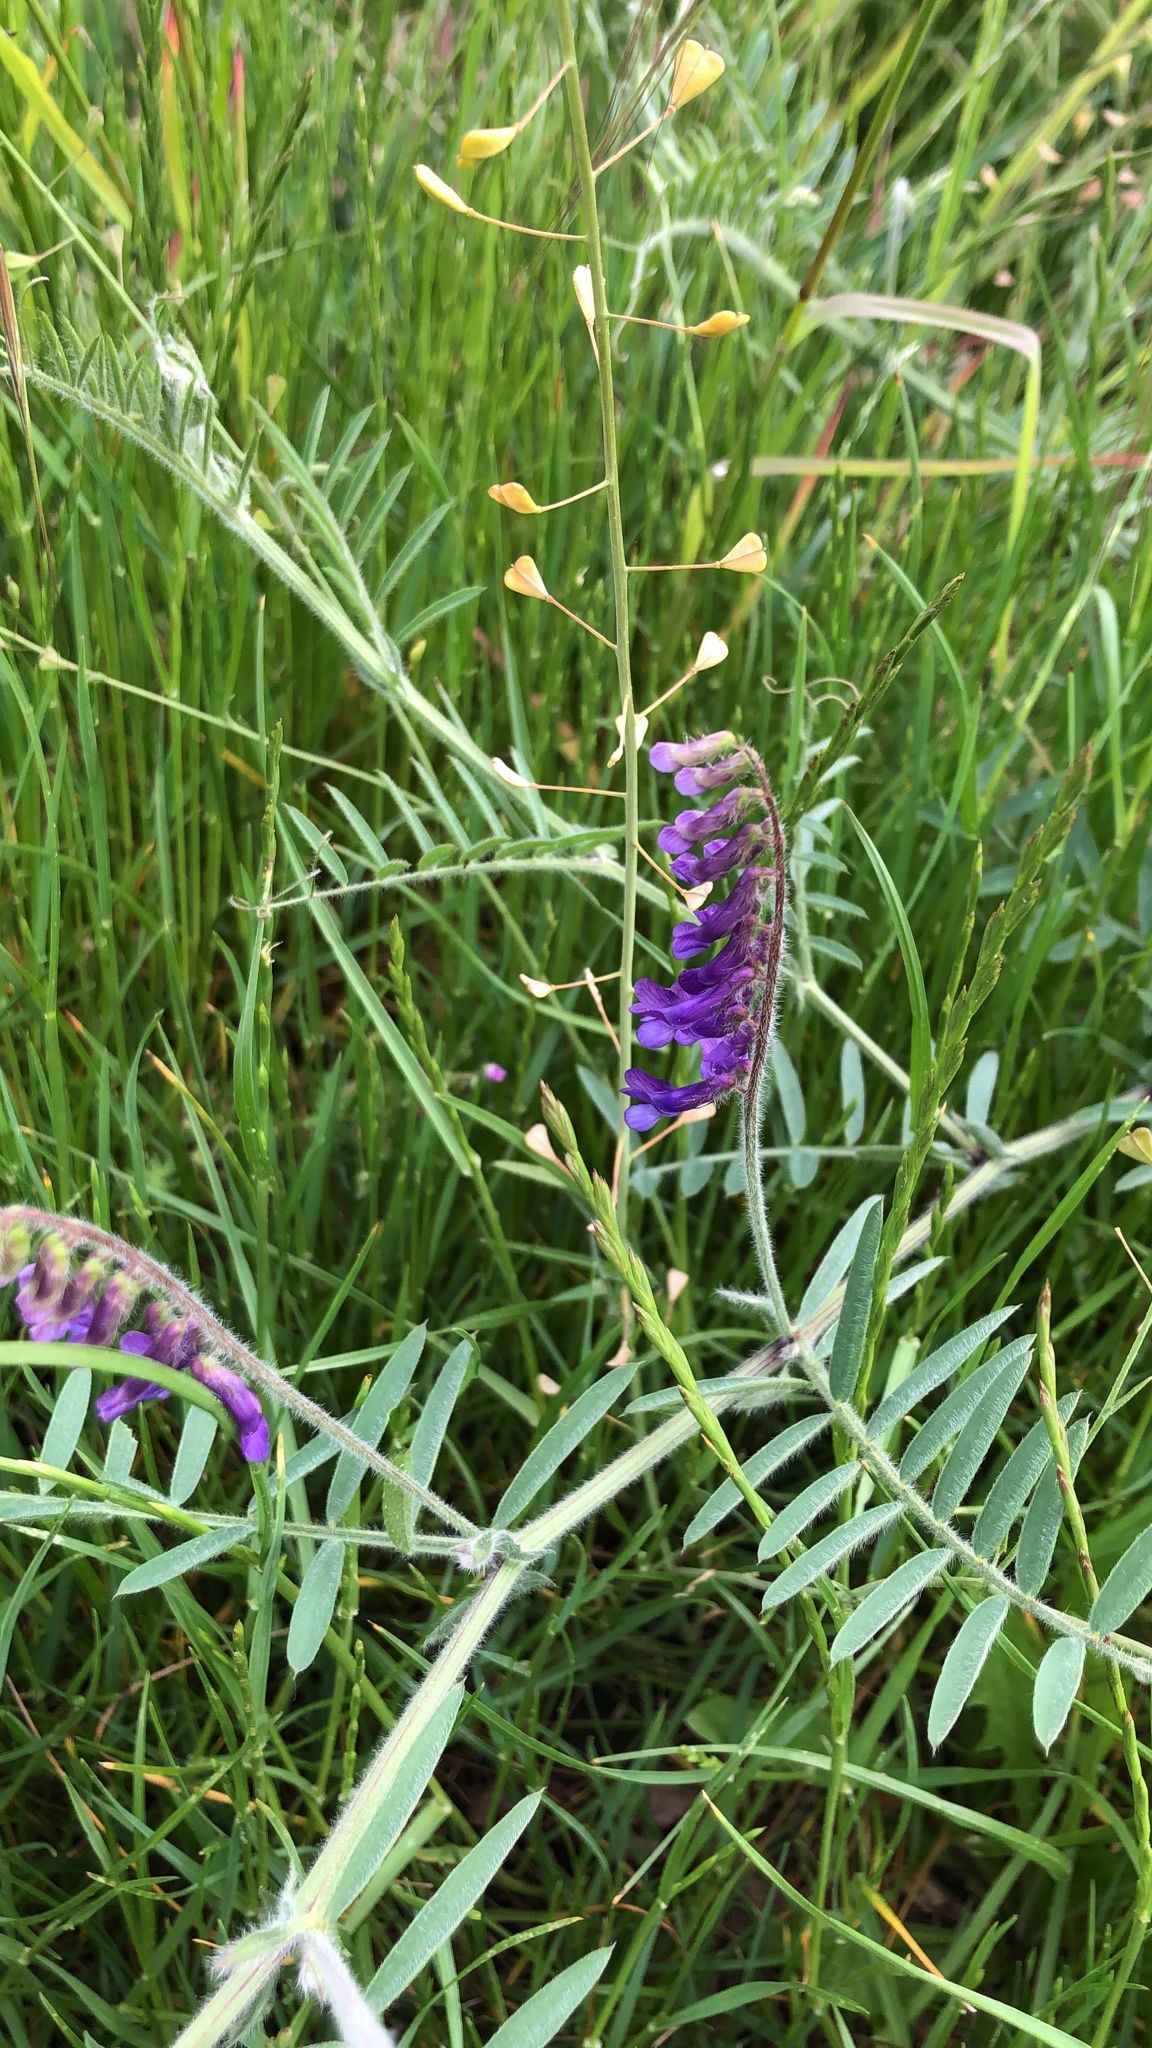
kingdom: Plantae
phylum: Tracheophyta
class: Magnoliopsida
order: Fabales
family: Fabaceae
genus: Vicia
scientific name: Vicia villosa
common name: Fodder vetch
